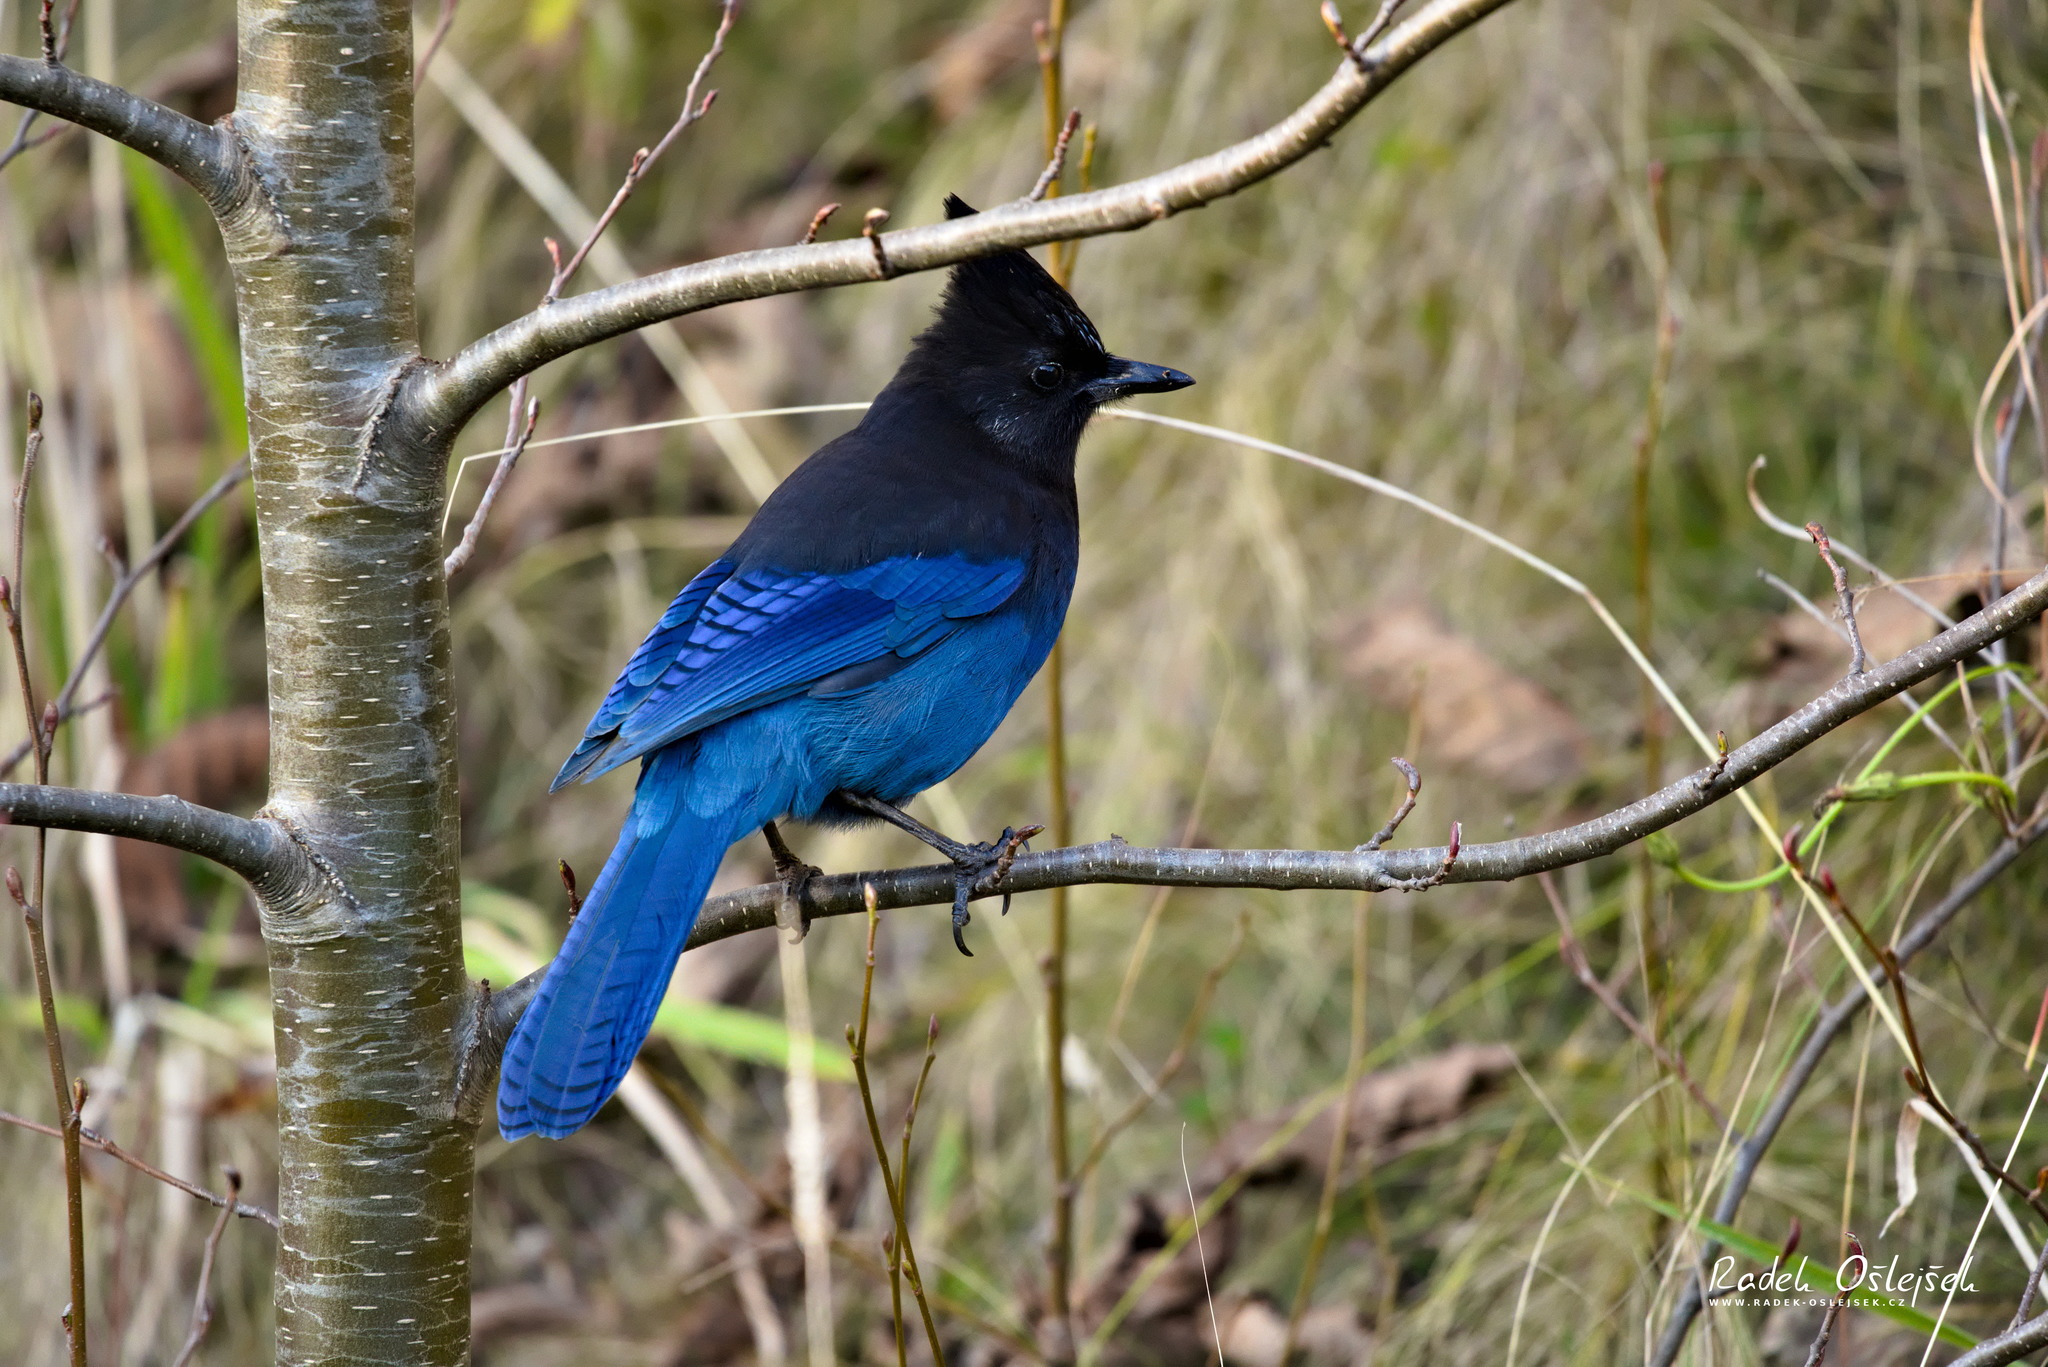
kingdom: Animalia
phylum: Chordata
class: Aves
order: Passeriformes
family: Corvidae
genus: Cyanocitta
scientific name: Cyanocitta stelleri
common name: Steller's jay
